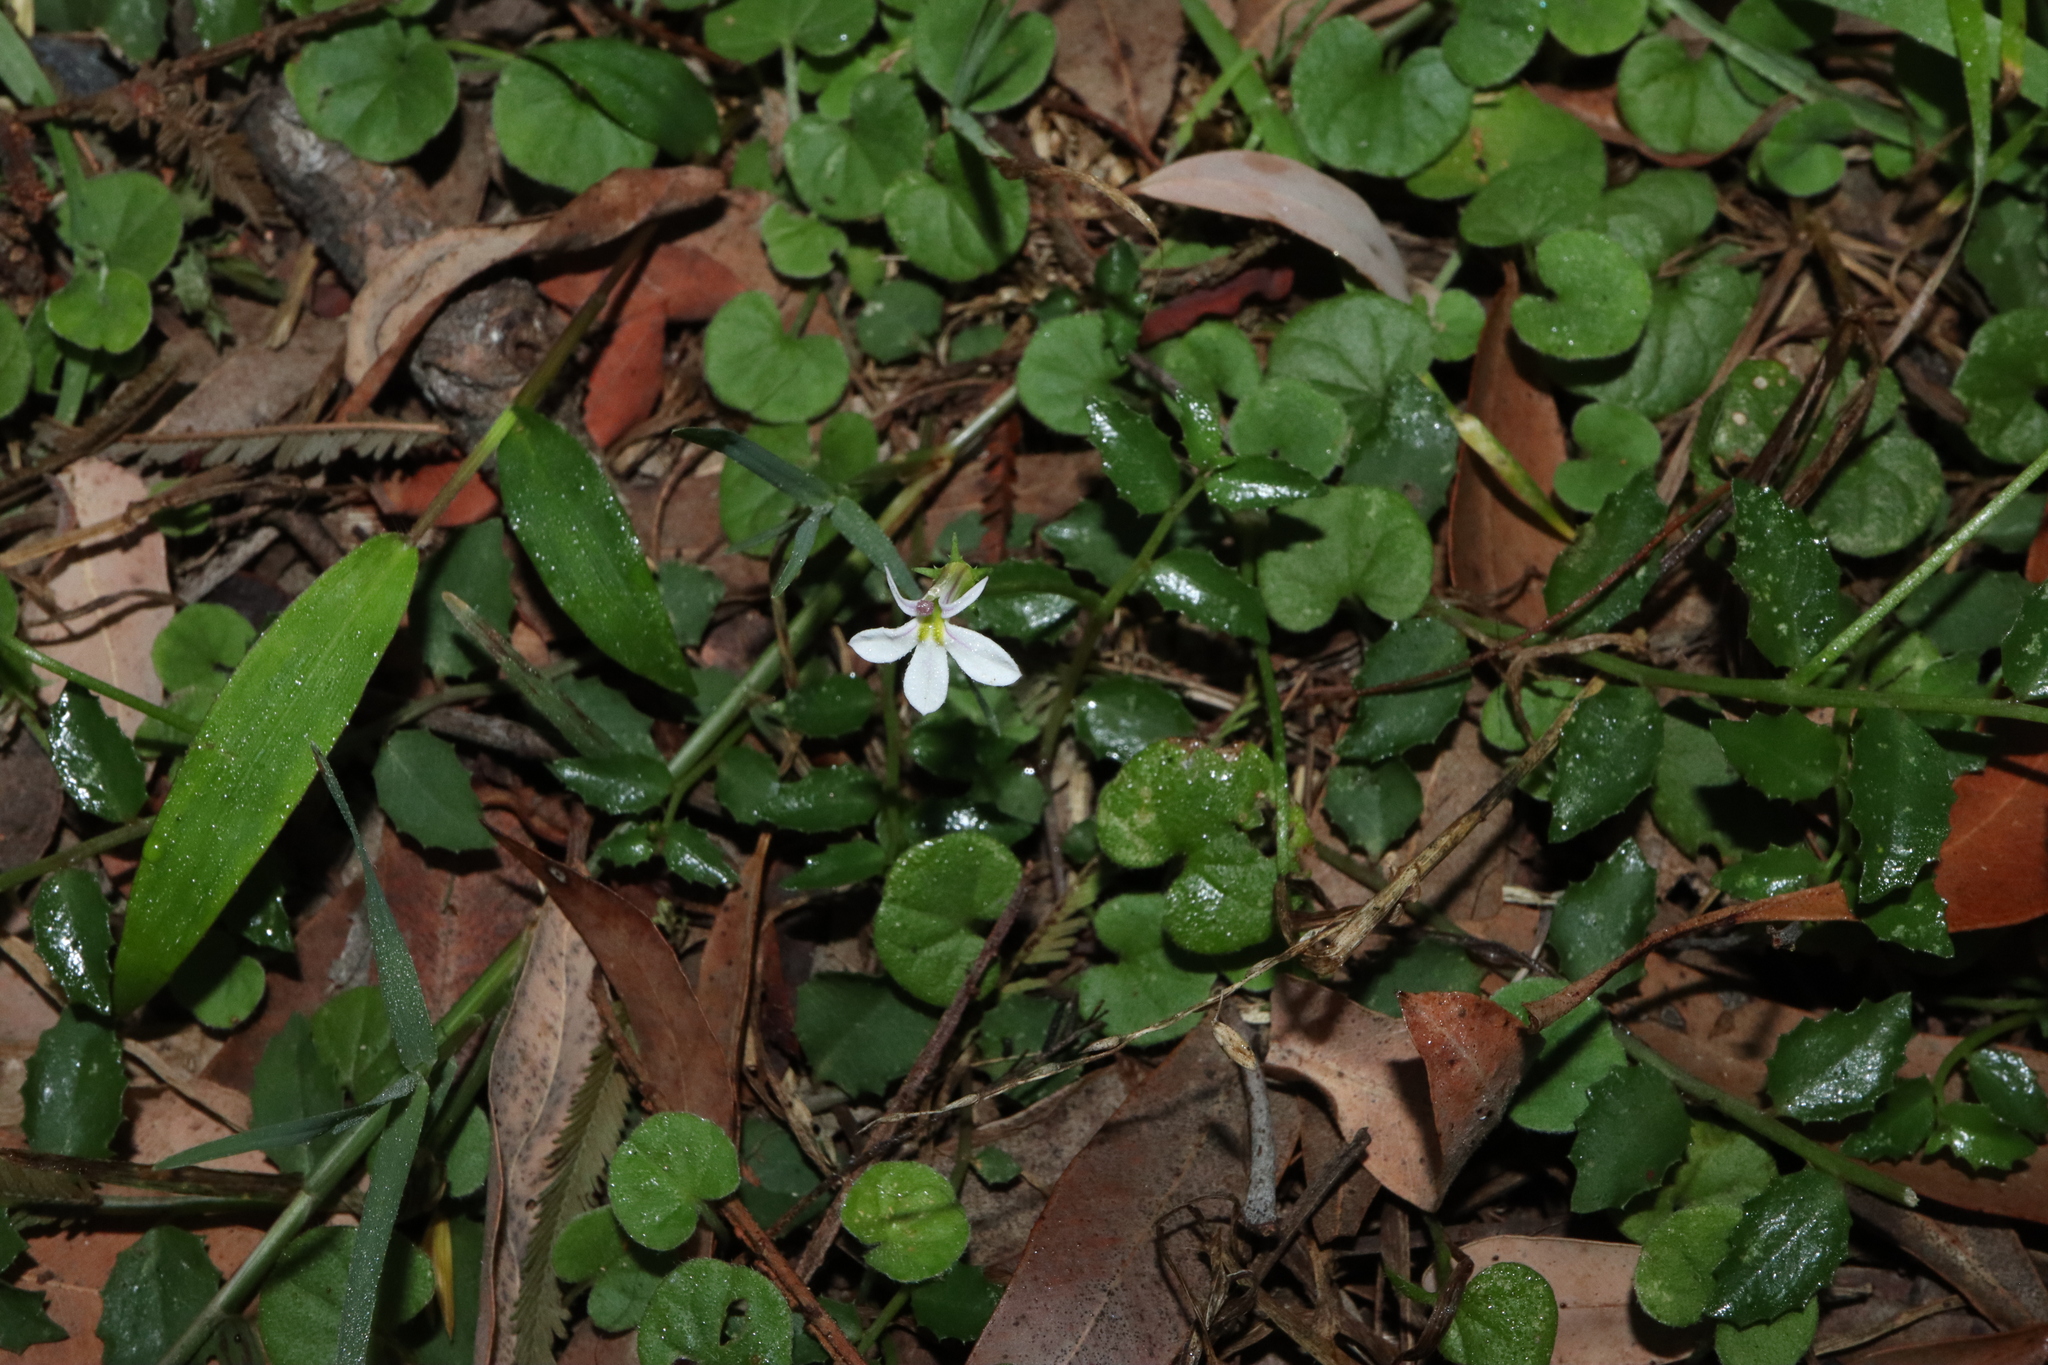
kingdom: Plantae
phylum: Tracheophyta
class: Magnoliopsida
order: Asterales
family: Campanulaceae
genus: Lobelia
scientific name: Lobelia purpurascens
